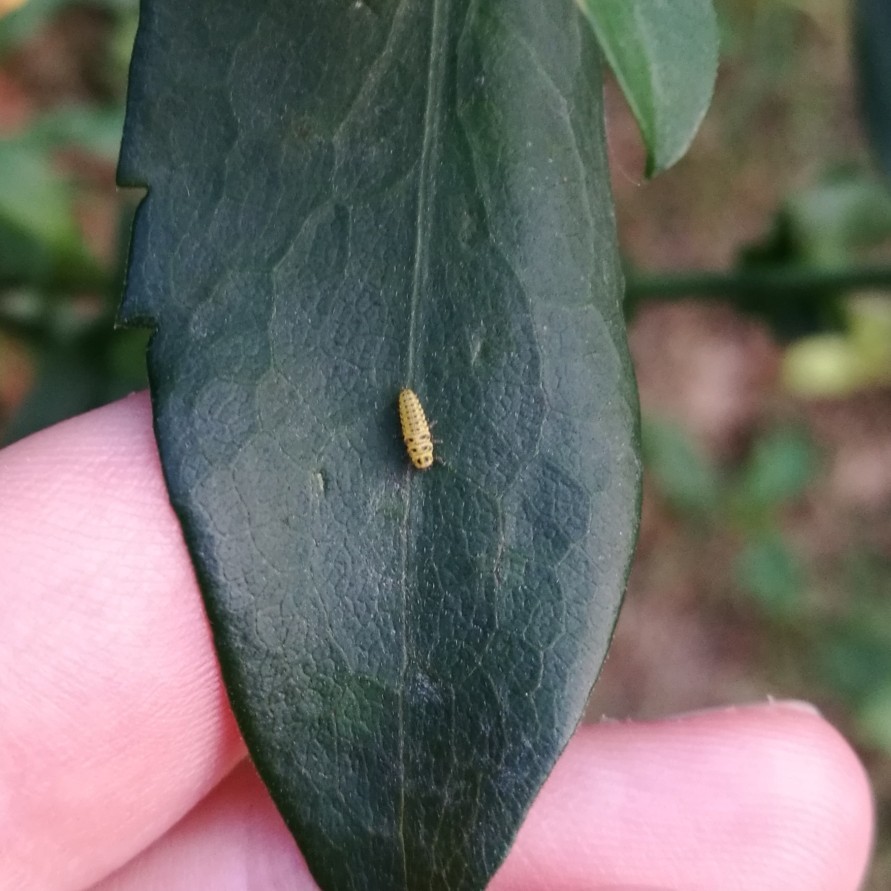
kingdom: Animalia
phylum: Arthropoda
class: Insecta
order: Coleoptera
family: Coccinellidae
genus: Psyllobora
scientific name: Psyllobora vigintiduopunctata
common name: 22-spot ladybird
